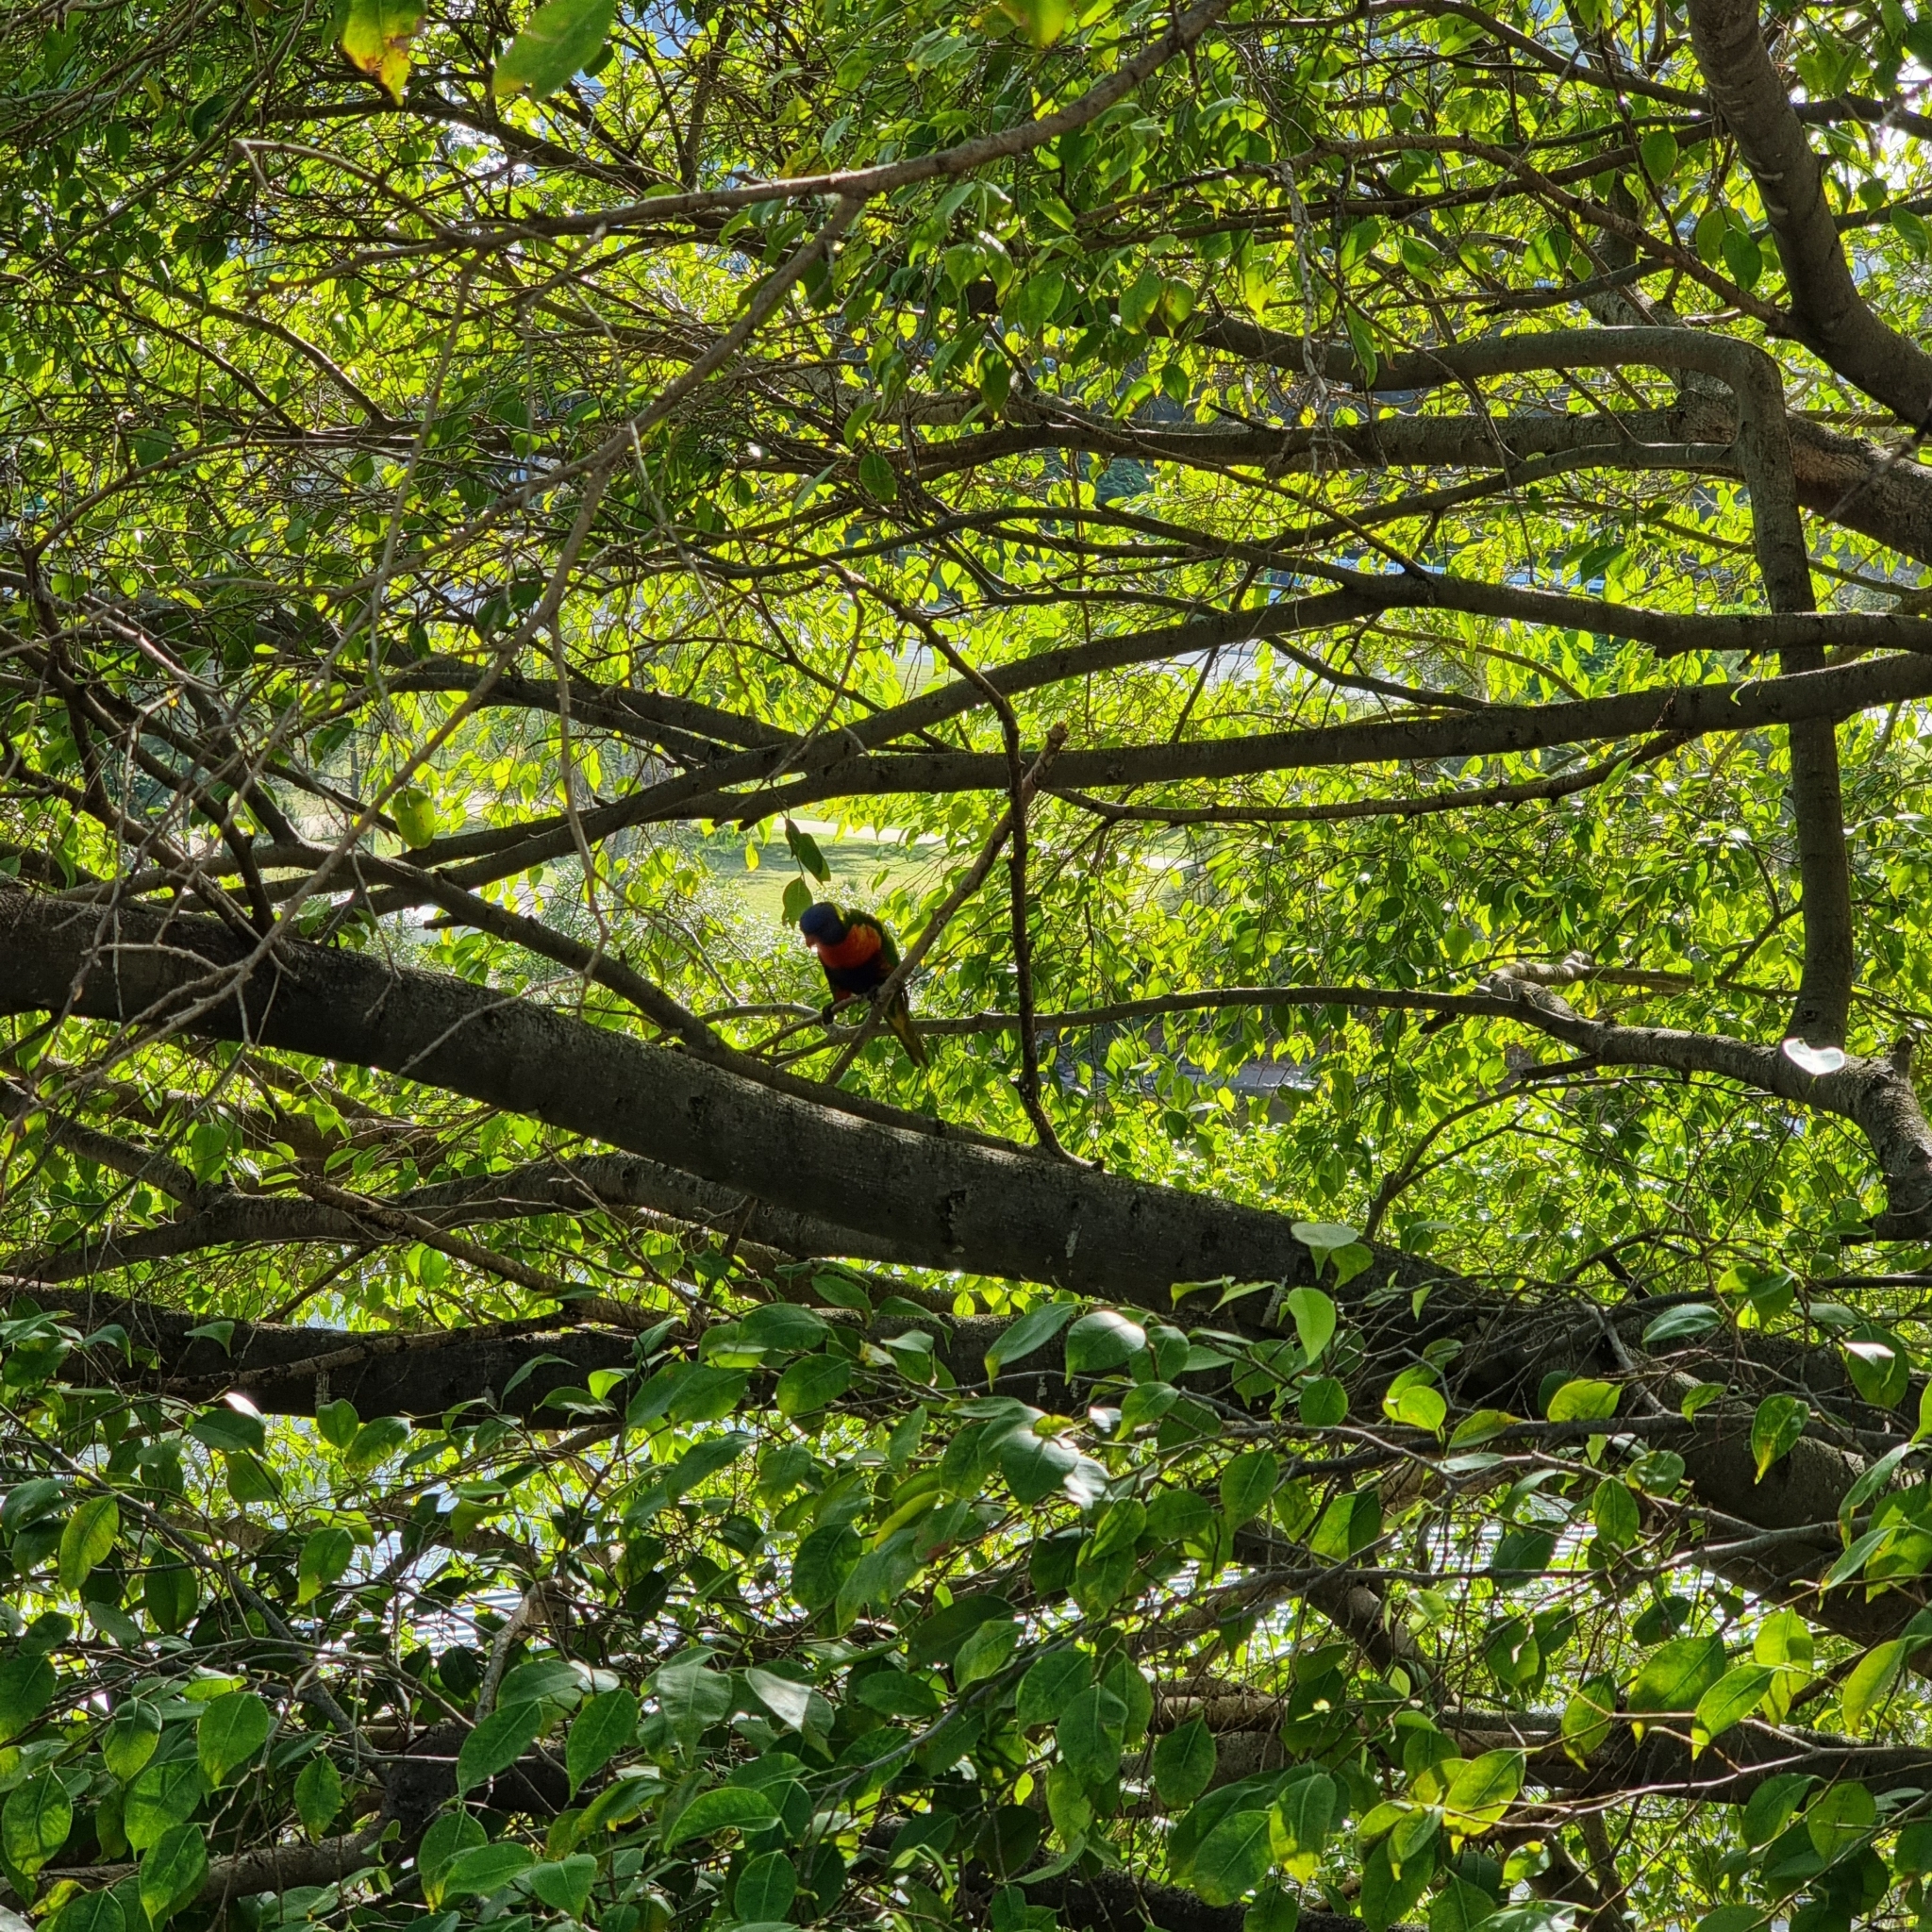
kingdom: Animalia
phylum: Chordata
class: Aves
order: Psittaciformes
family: Psittacidae
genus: Trichoglossus
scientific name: Trichoglossus haematodus
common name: Coconut lorikeet
